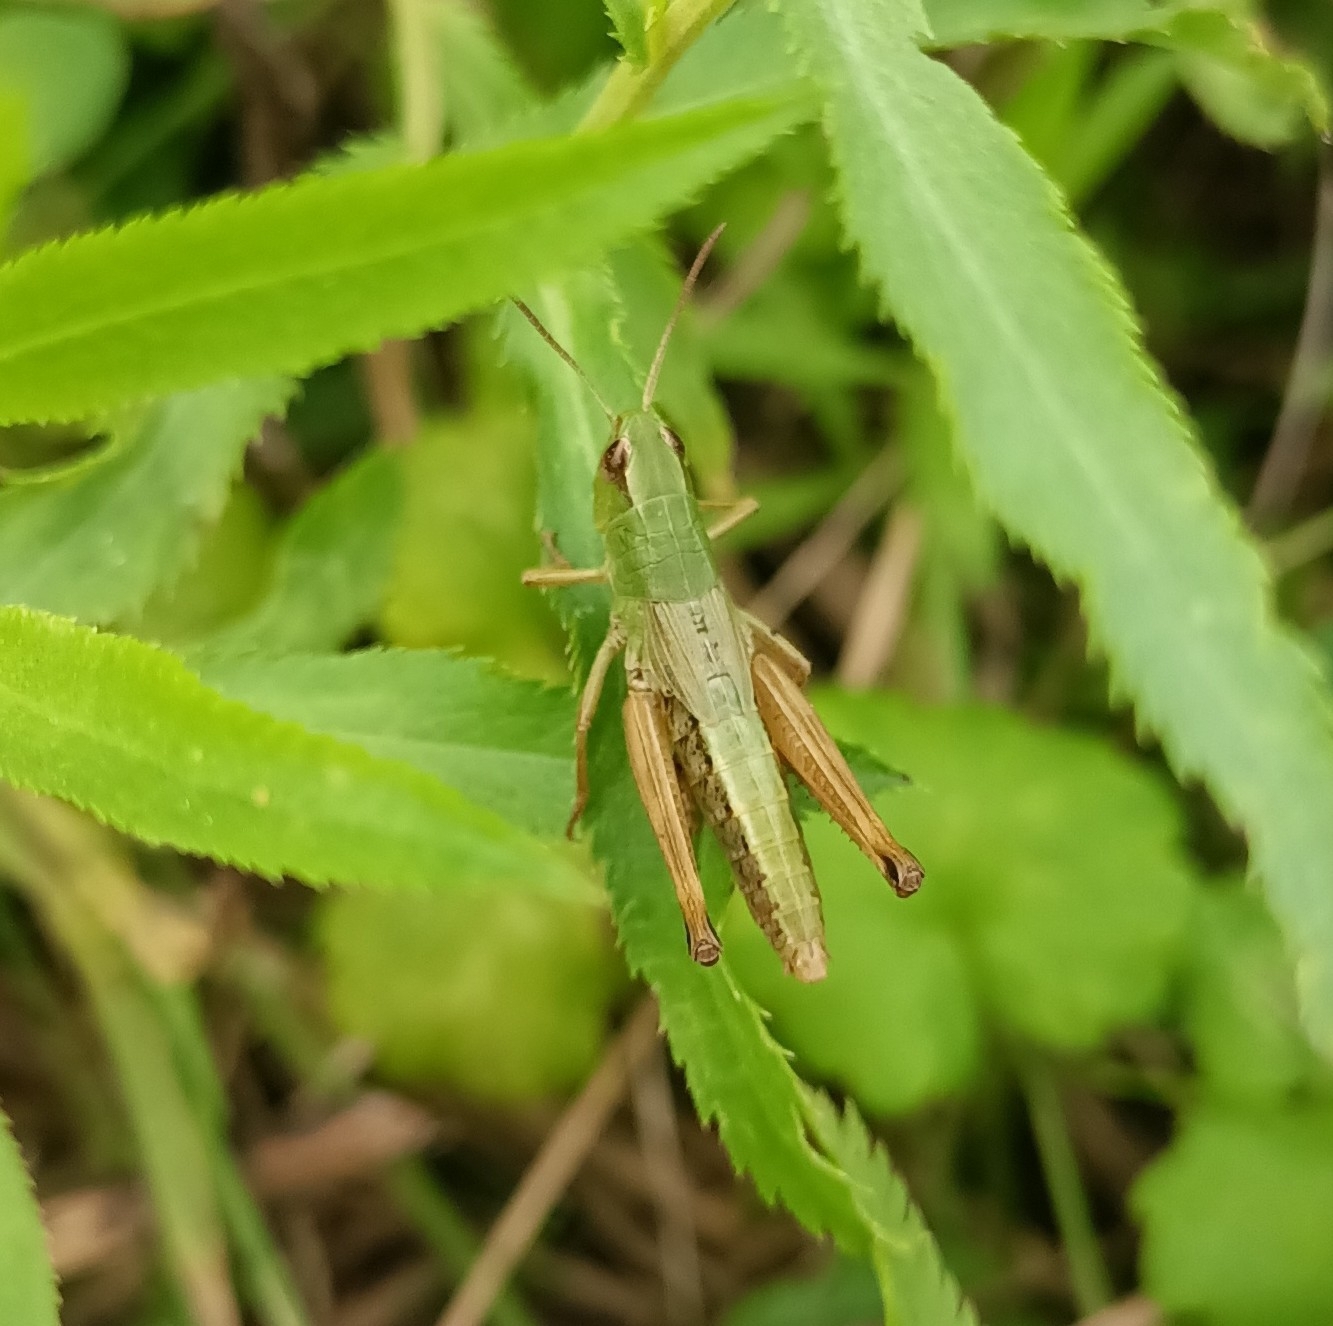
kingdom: Animalia
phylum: Arthropoda
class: Insecta
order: Orthoptera
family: Acrididae
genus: Pseudochorthippus
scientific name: Pseudochorthippus parallelus
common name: Meadow grasshopper
